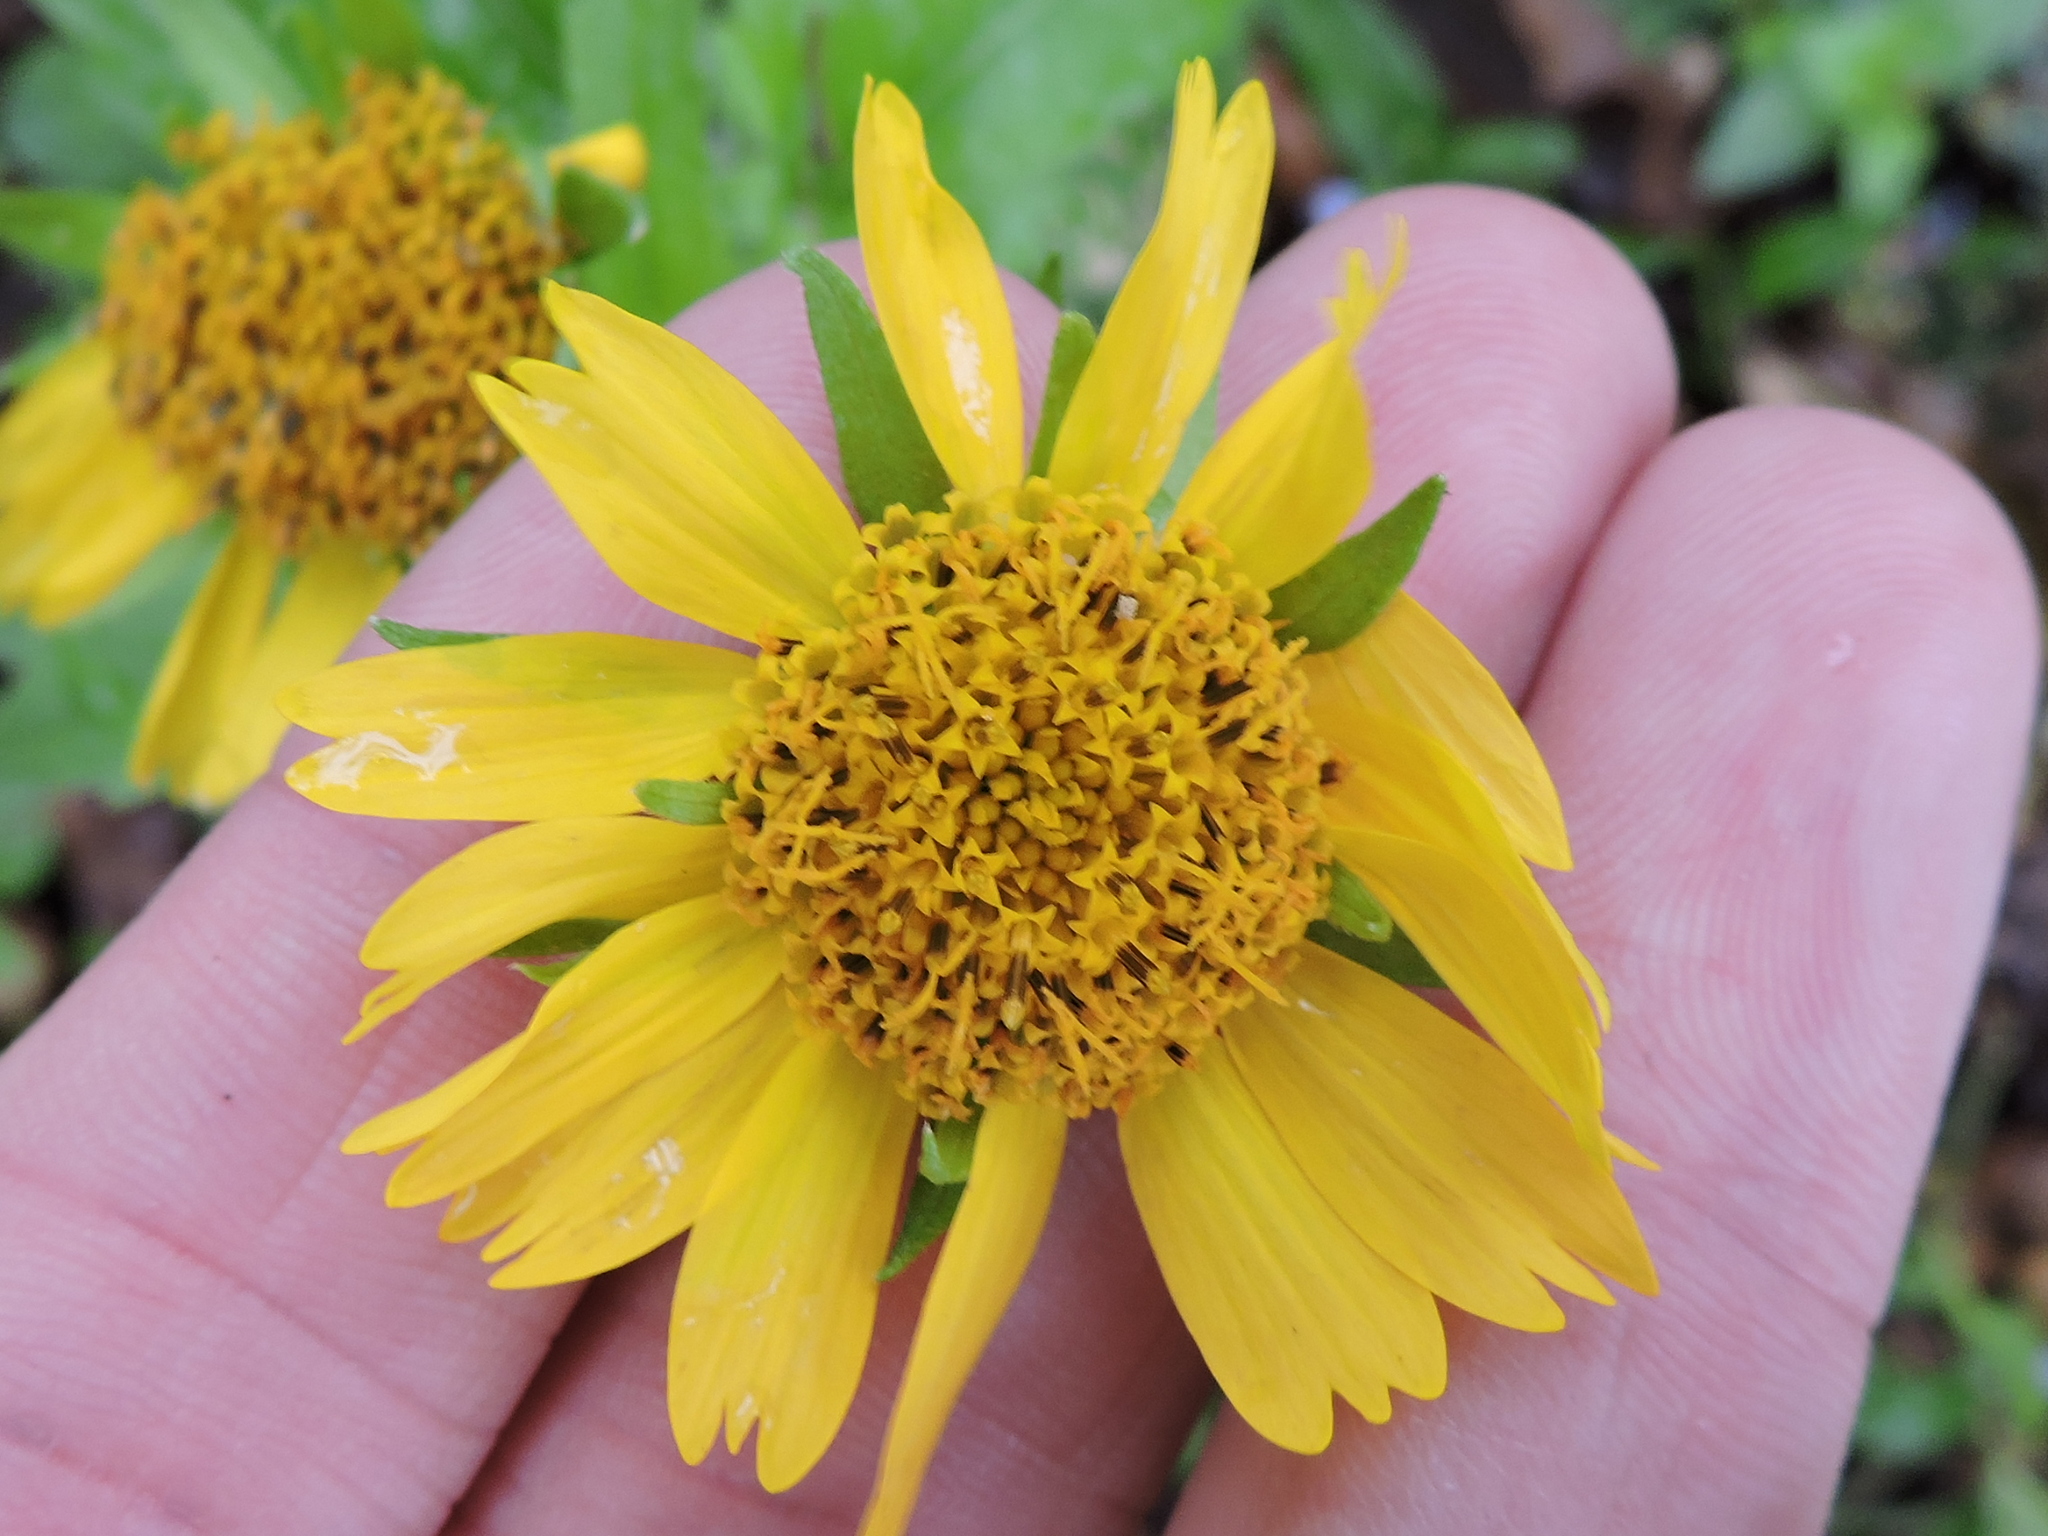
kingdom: Plantae
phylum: Tracheophyta
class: Magnoliopsida
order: Asterales
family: Asteraceae
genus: Verbesina
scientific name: Verbesina encelioides
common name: Golden crownbeard
